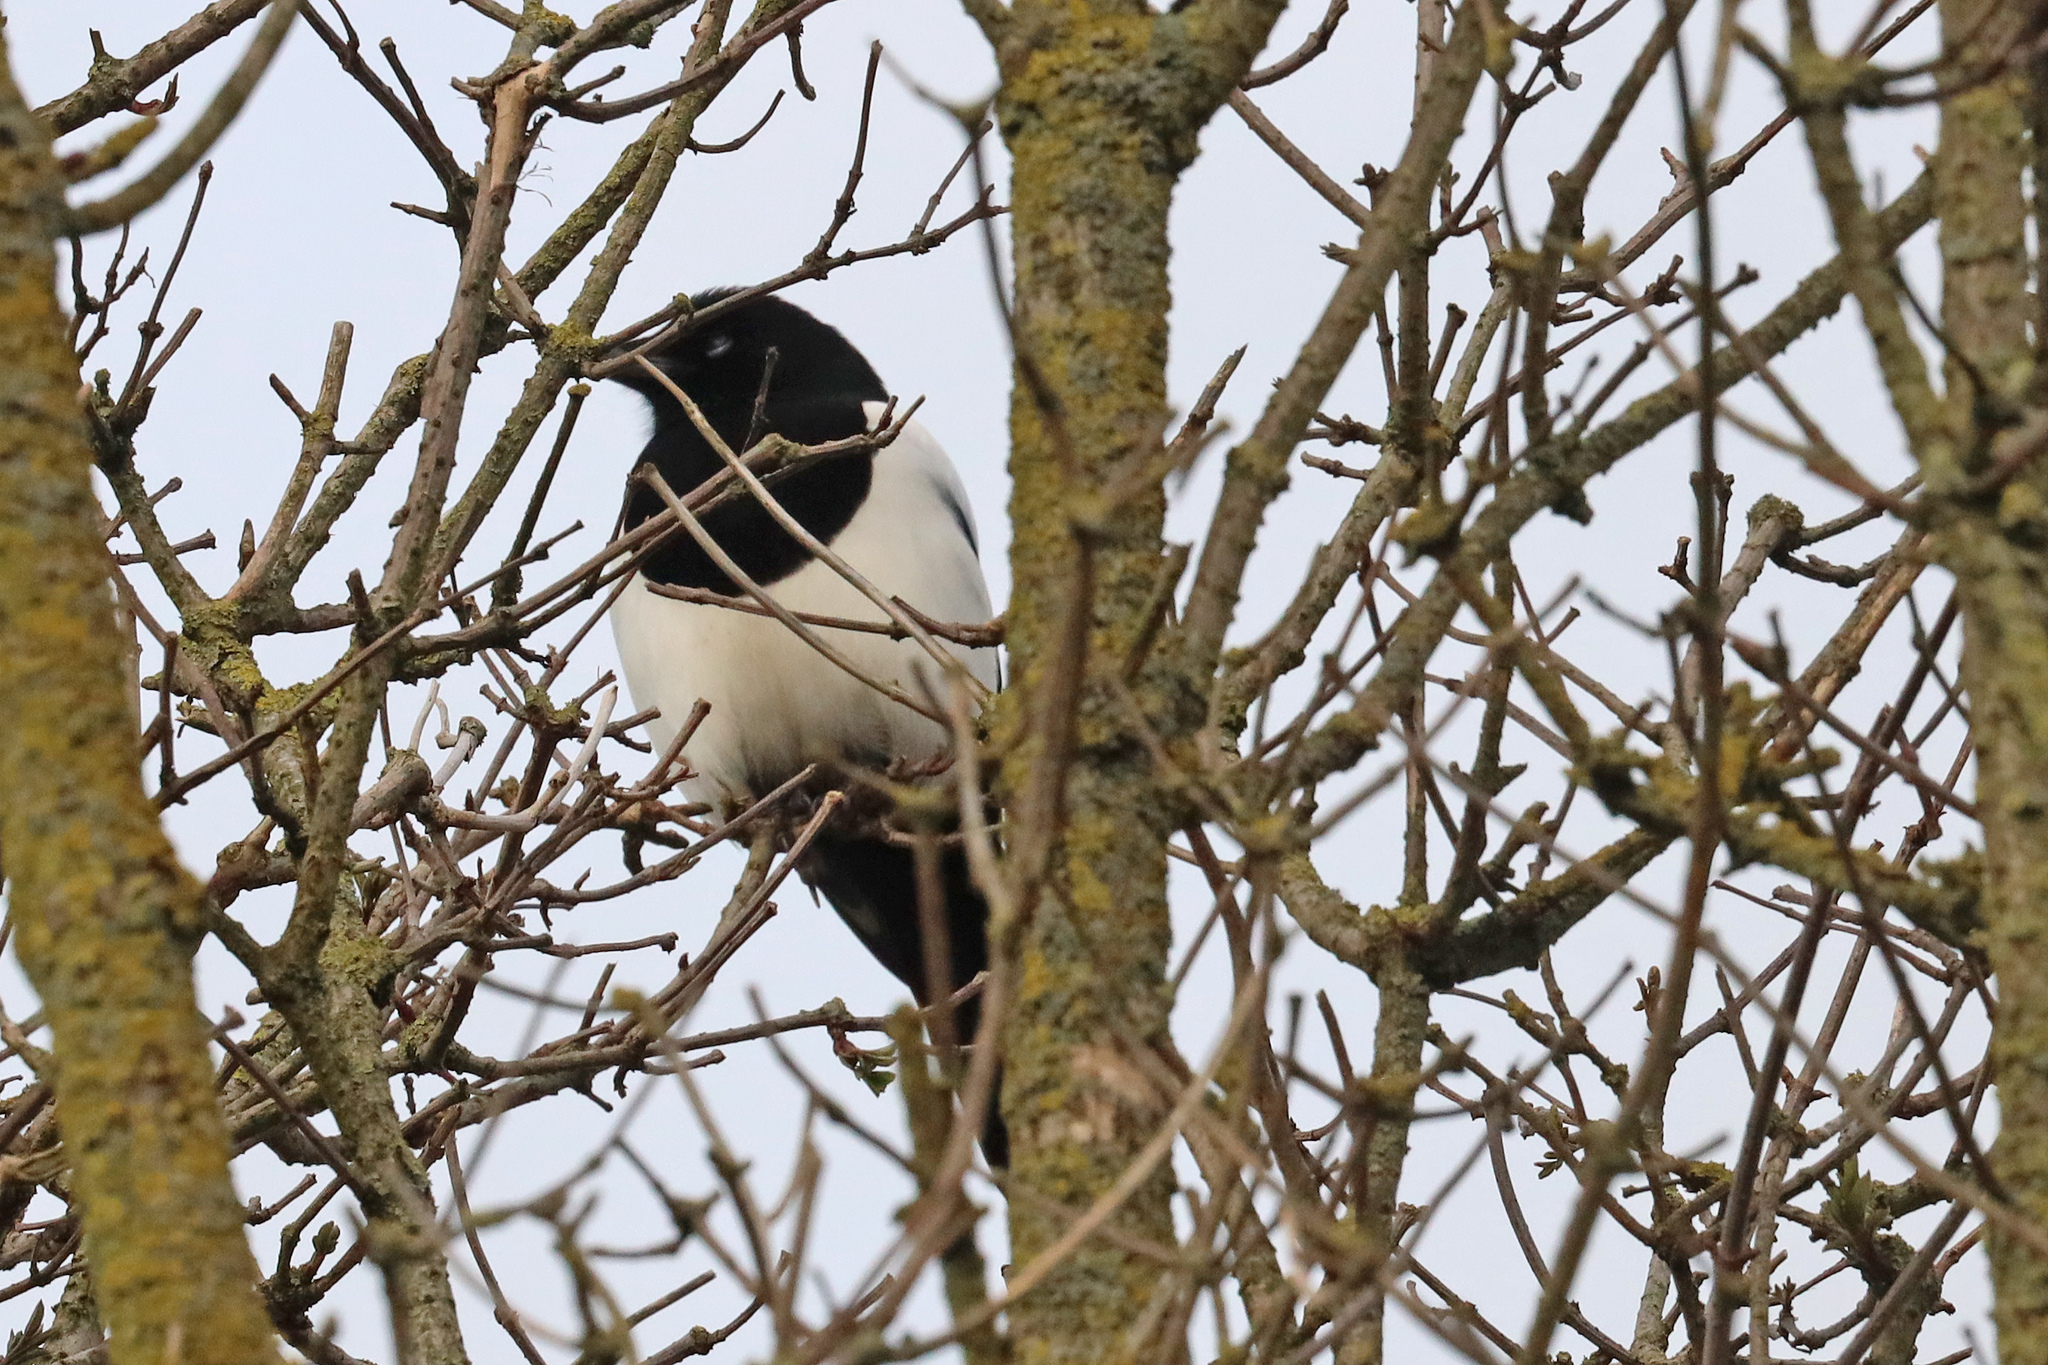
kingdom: Animalia
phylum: Chordata
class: Aves
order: Passeriformes
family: Corvidae
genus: Pica
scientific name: Pica pica
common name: Eurasian magpie
